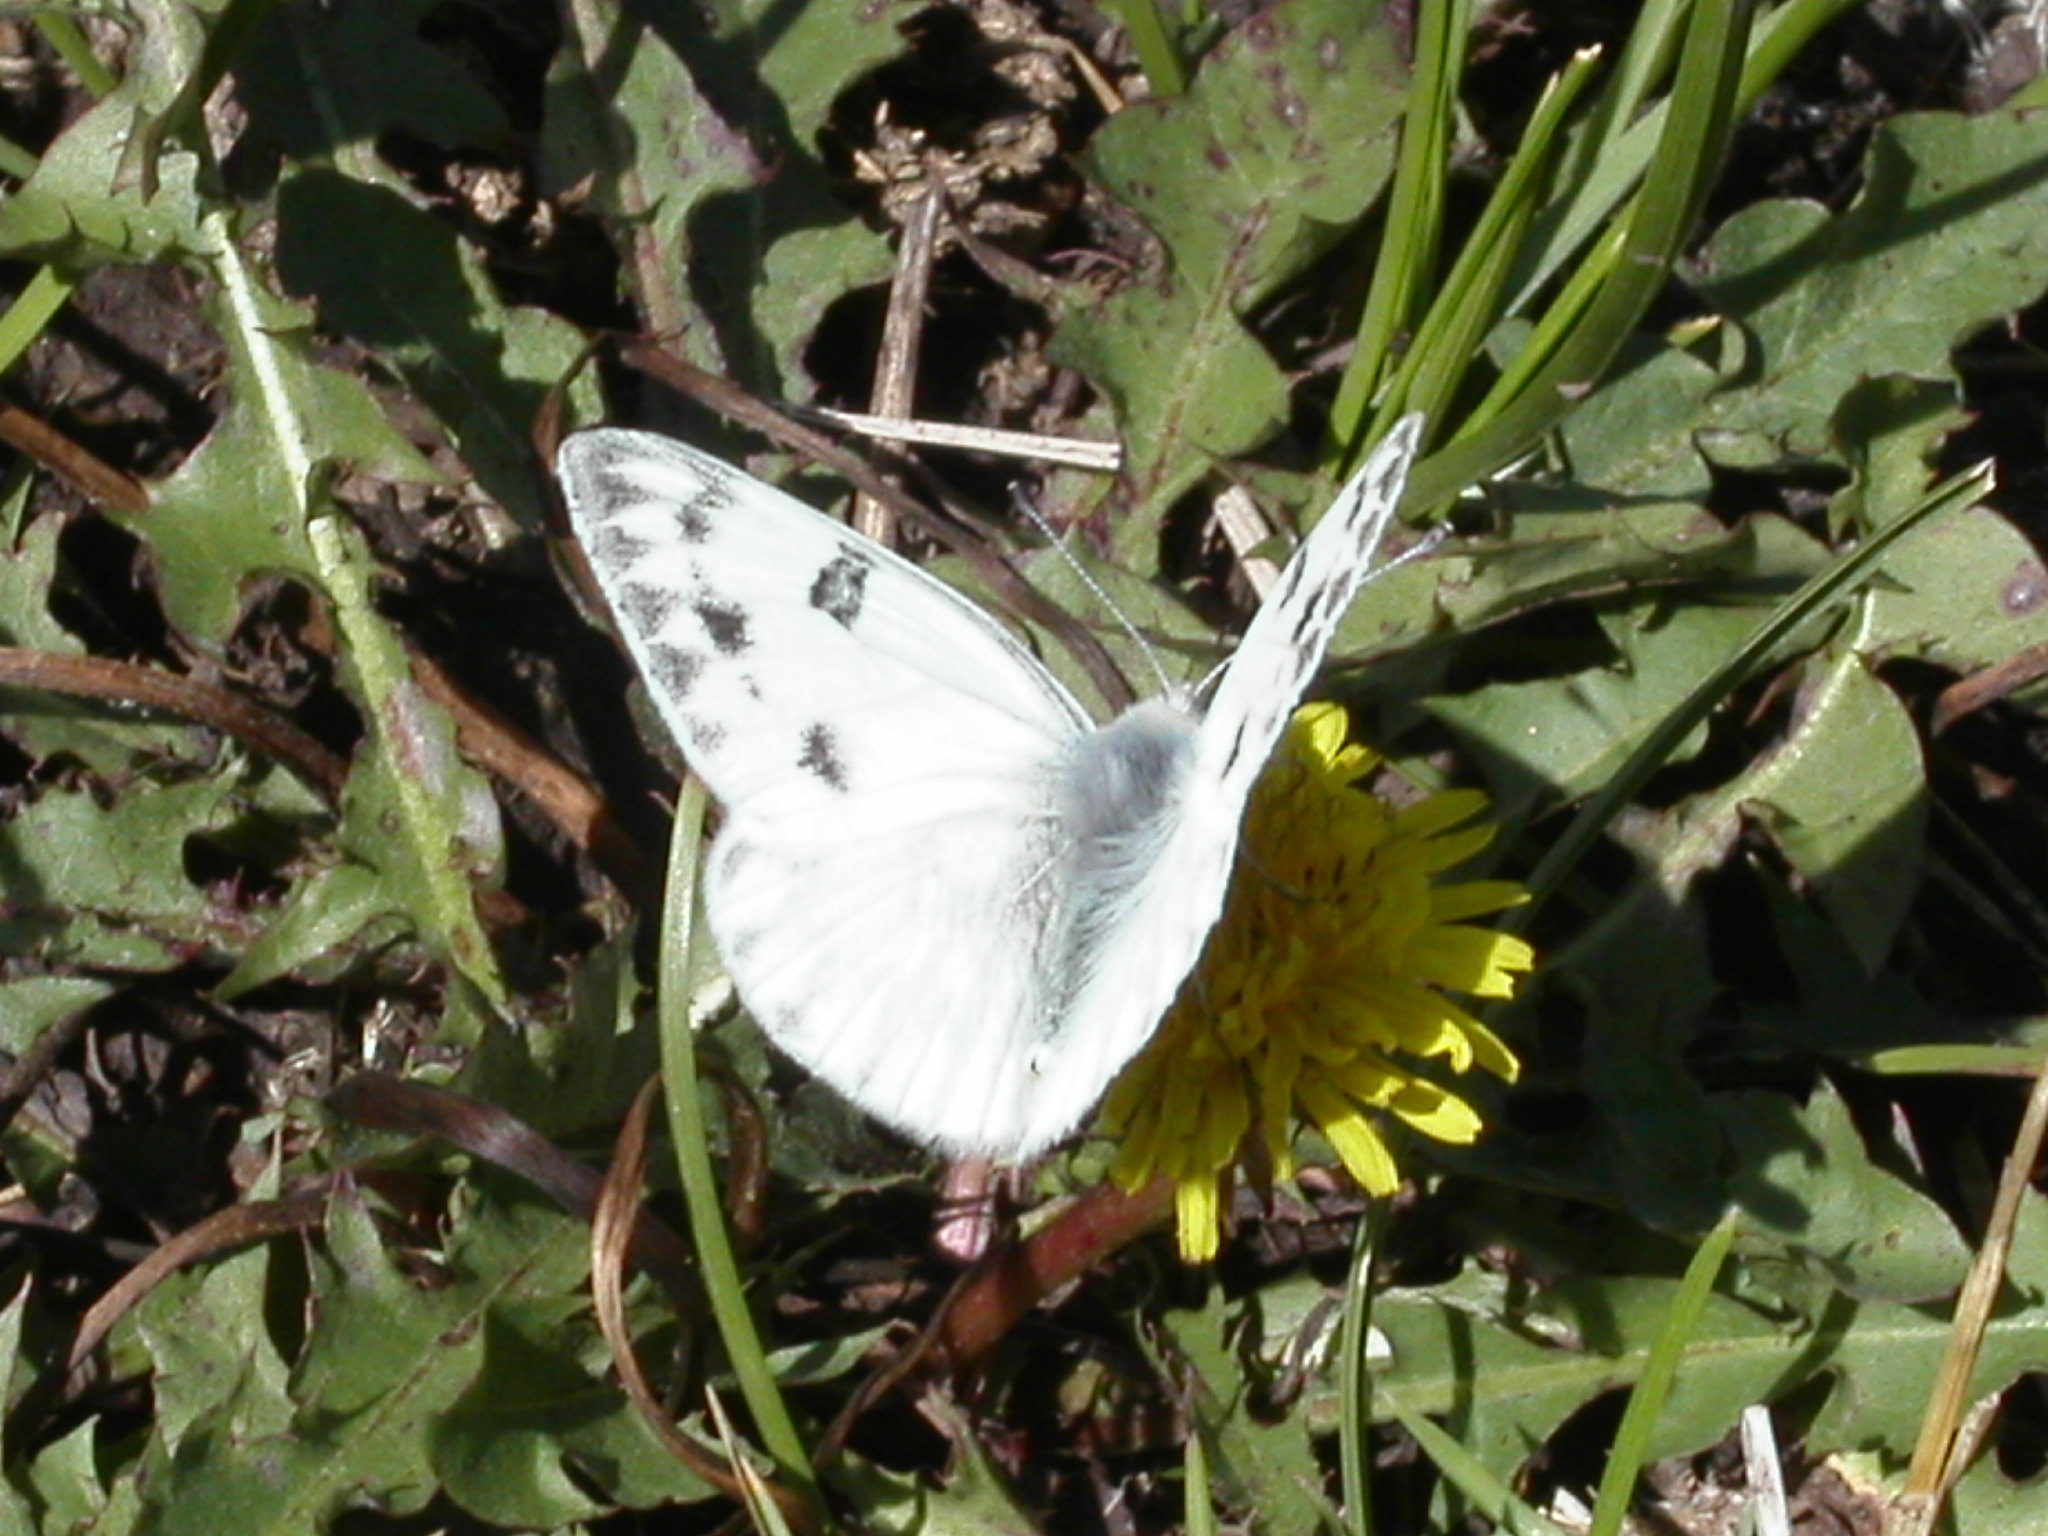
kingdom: Animalia
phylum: Arthropoda
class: Insecta
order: Lepidoptera
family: Pieridae
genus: Pontia
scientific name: Pontia occidentalis
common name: Western white
